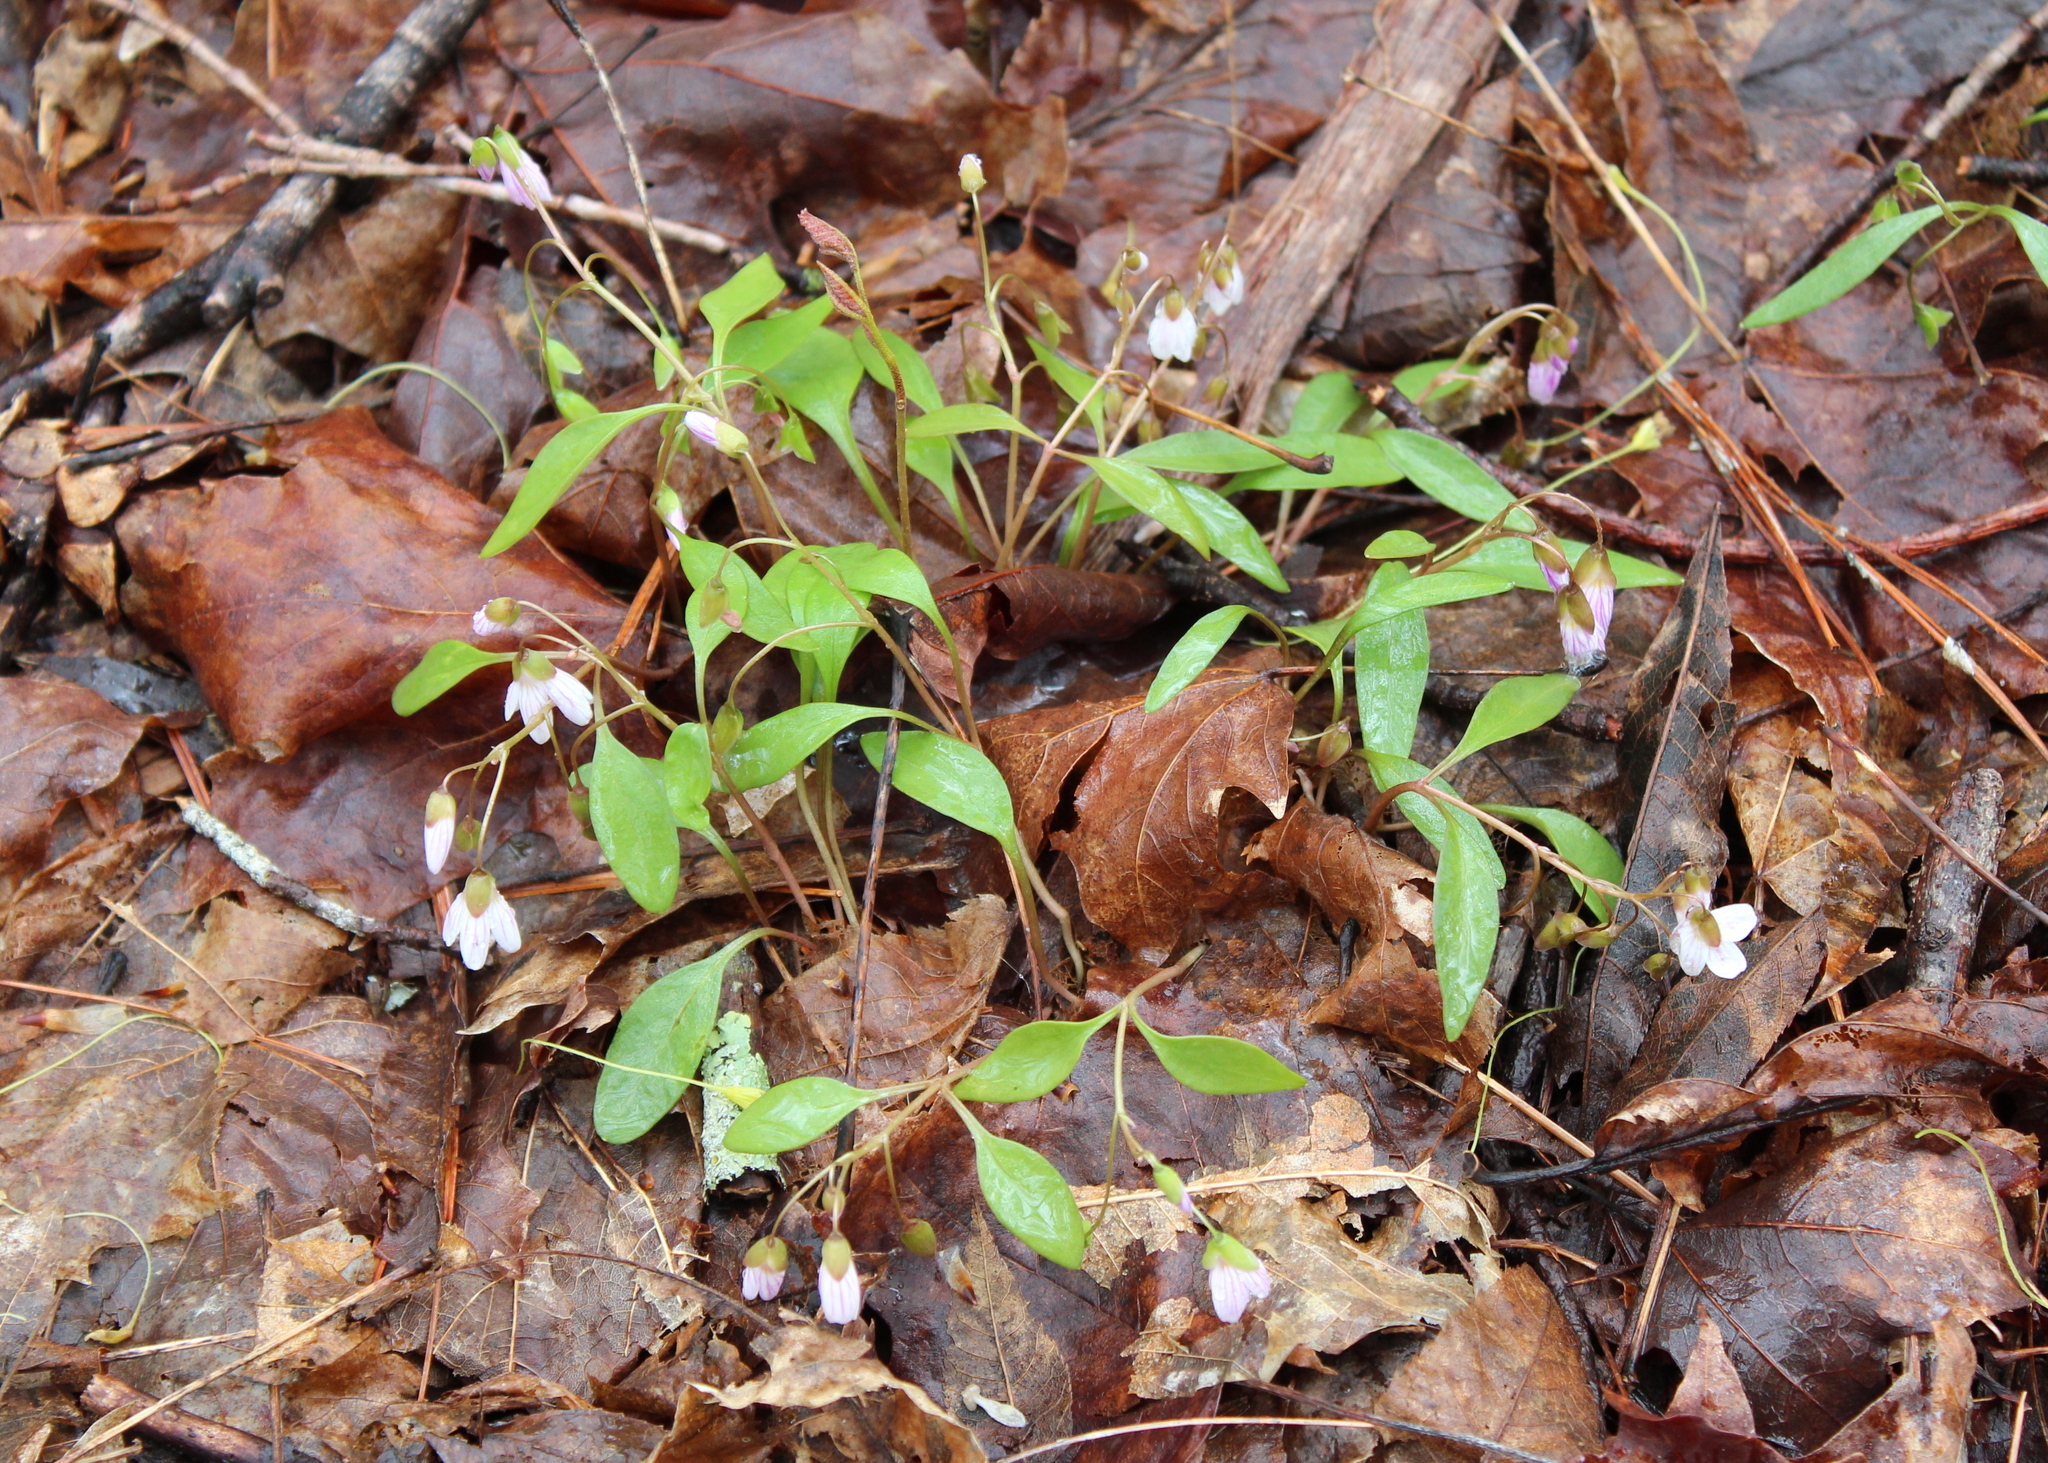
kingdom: Plantae
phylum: Tracheophyta
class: Magnoliopsida
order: Caryophyllales
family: Montiaceae
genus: Claytonia
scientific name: Claytonia caroliniana
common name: Carolina spring beauty
